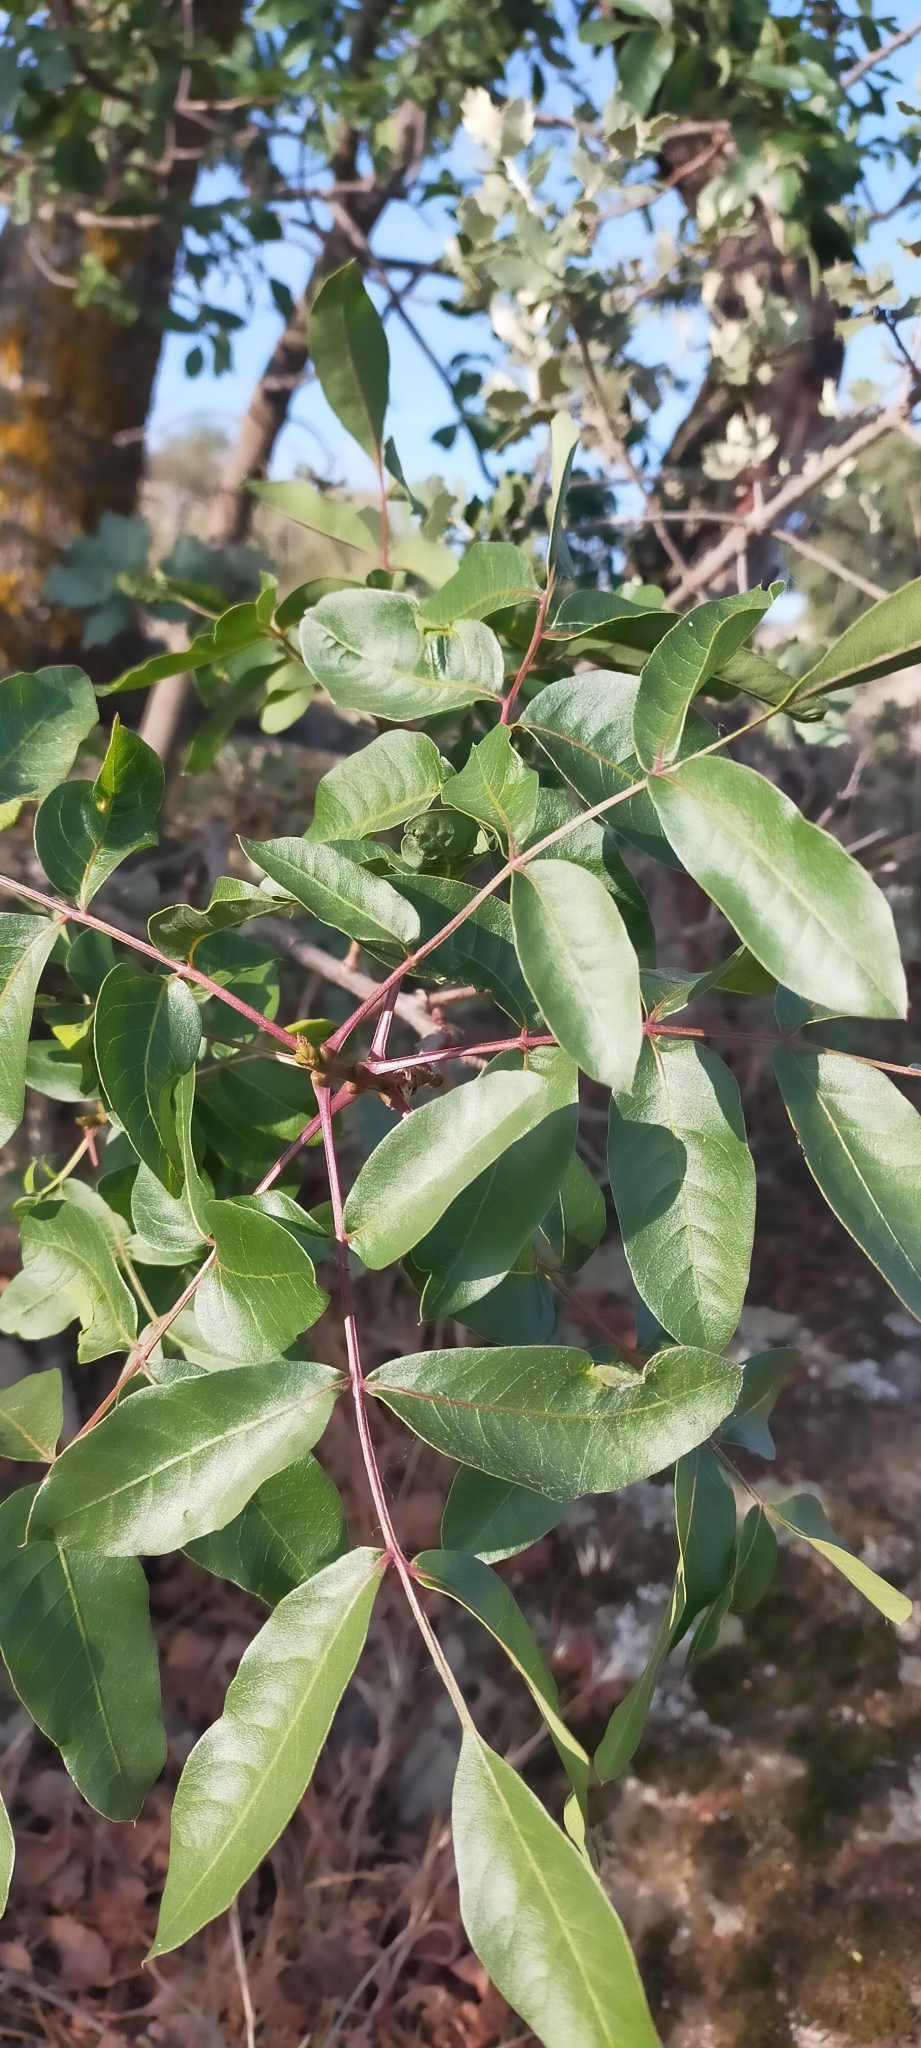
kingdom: Plantae
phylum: Tracheophyta
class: Magnoliopsida
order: Sapindales
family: Anacardiaceae
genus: Pistacia
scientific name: Pistacia terebinthus
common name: Terebinth
